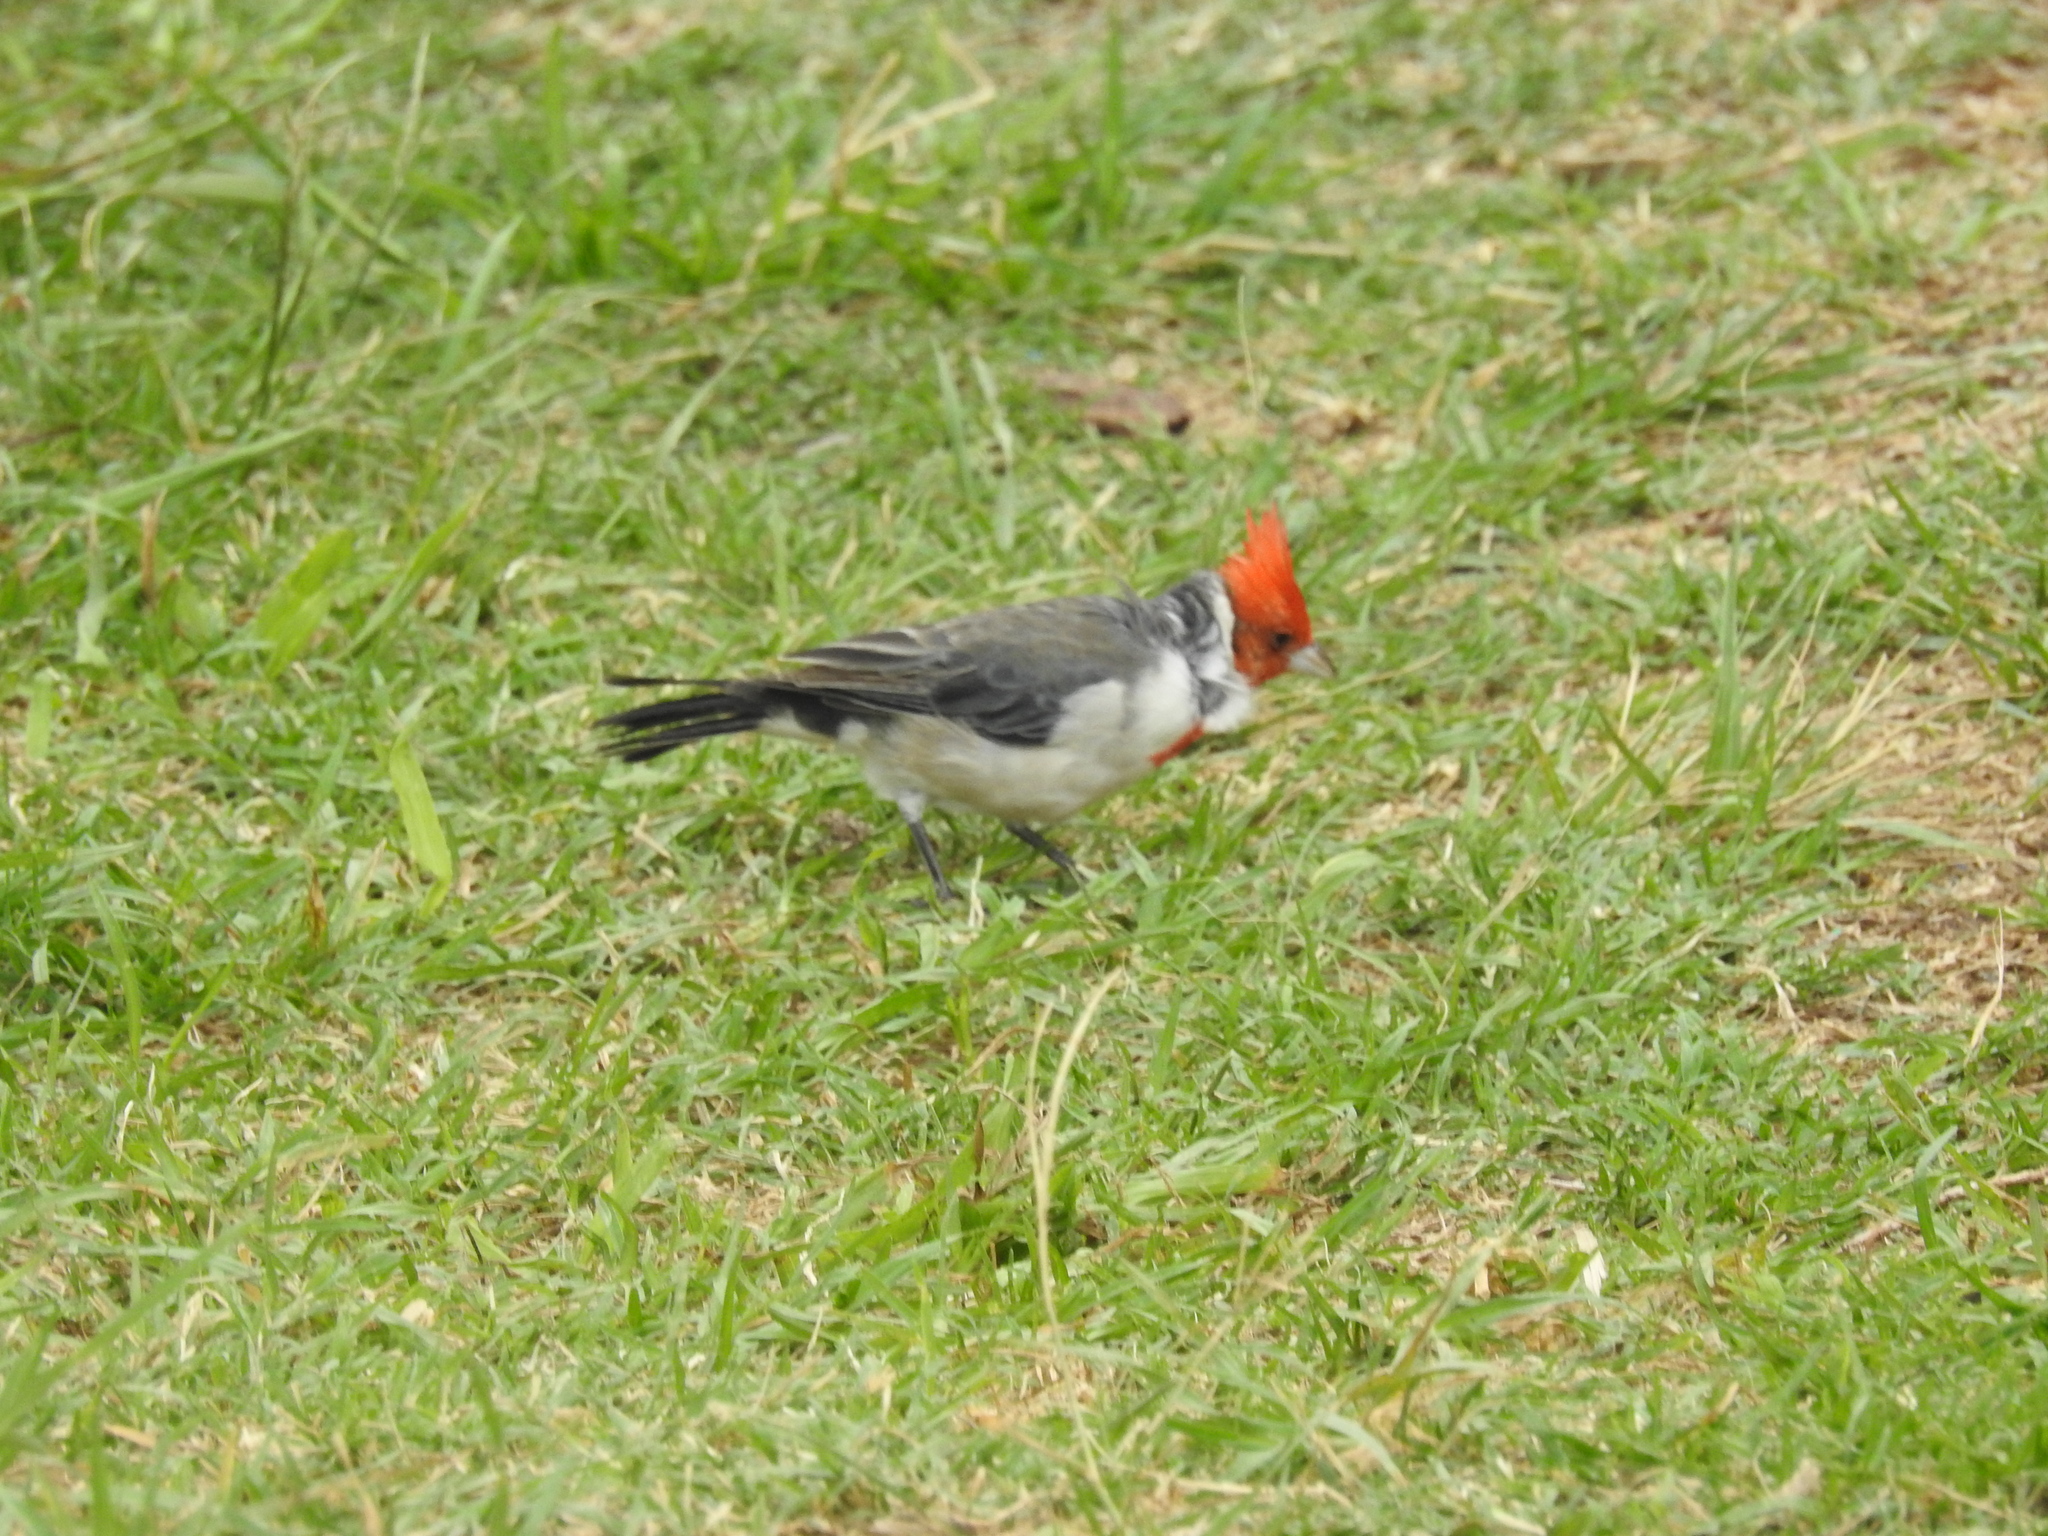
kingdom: Animalia
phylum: Chordata
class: Aves
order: Passeriformes
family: Thraupidae
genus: Paroaria
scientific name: Paroaria coronata
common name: Red-crested cardinal
